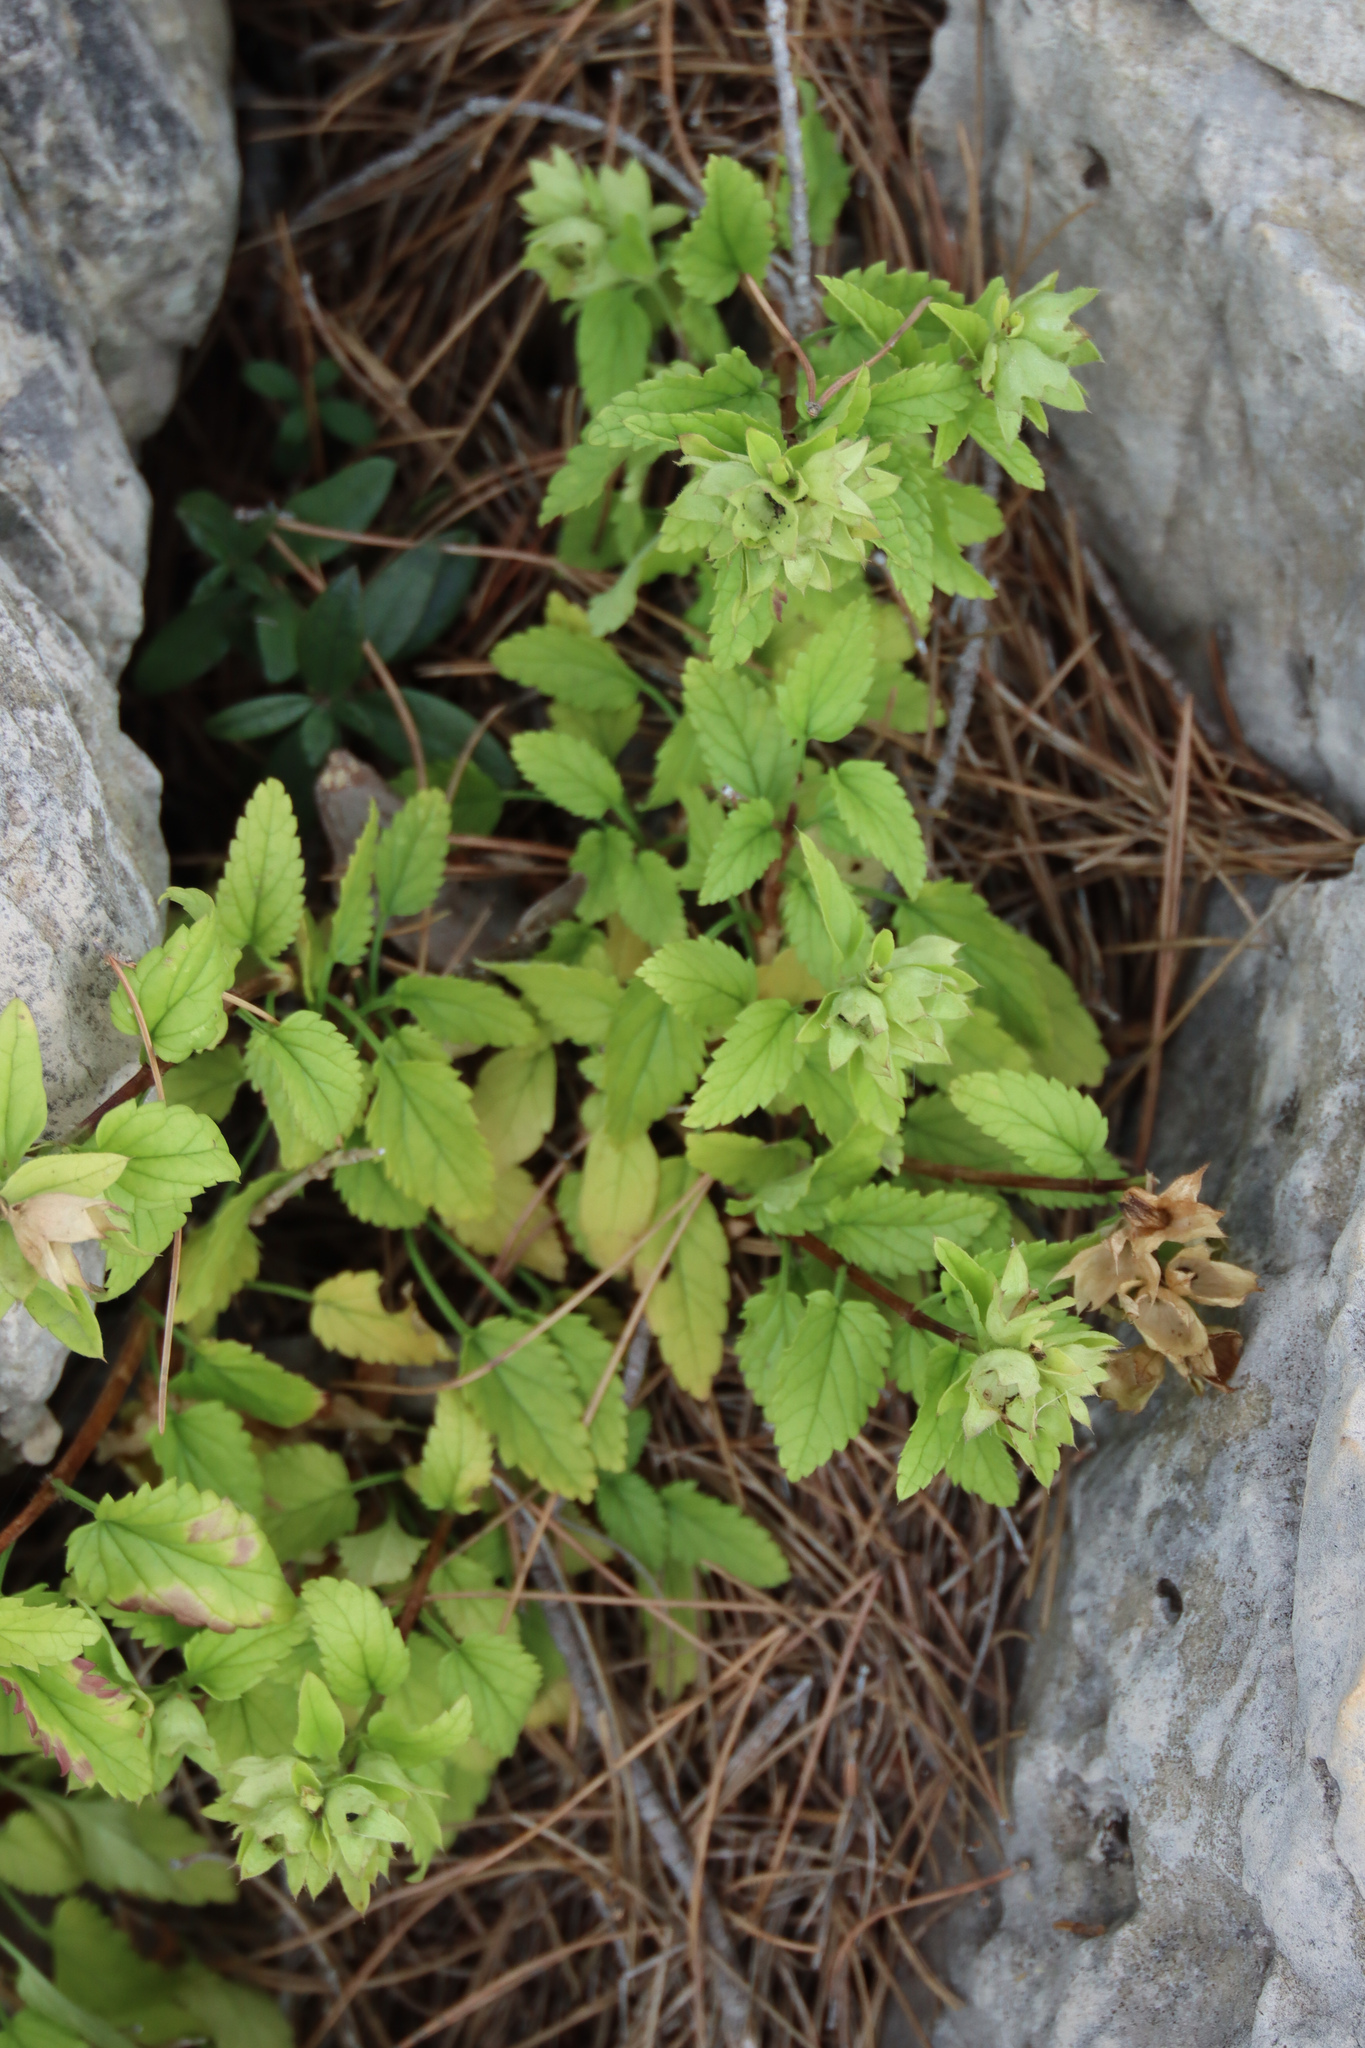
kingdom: Plantae
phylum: Tracheophyta
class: Magnoliopsida
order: Lamiales
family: Lamiaceae
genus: Prasium
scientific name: Prasium majus
